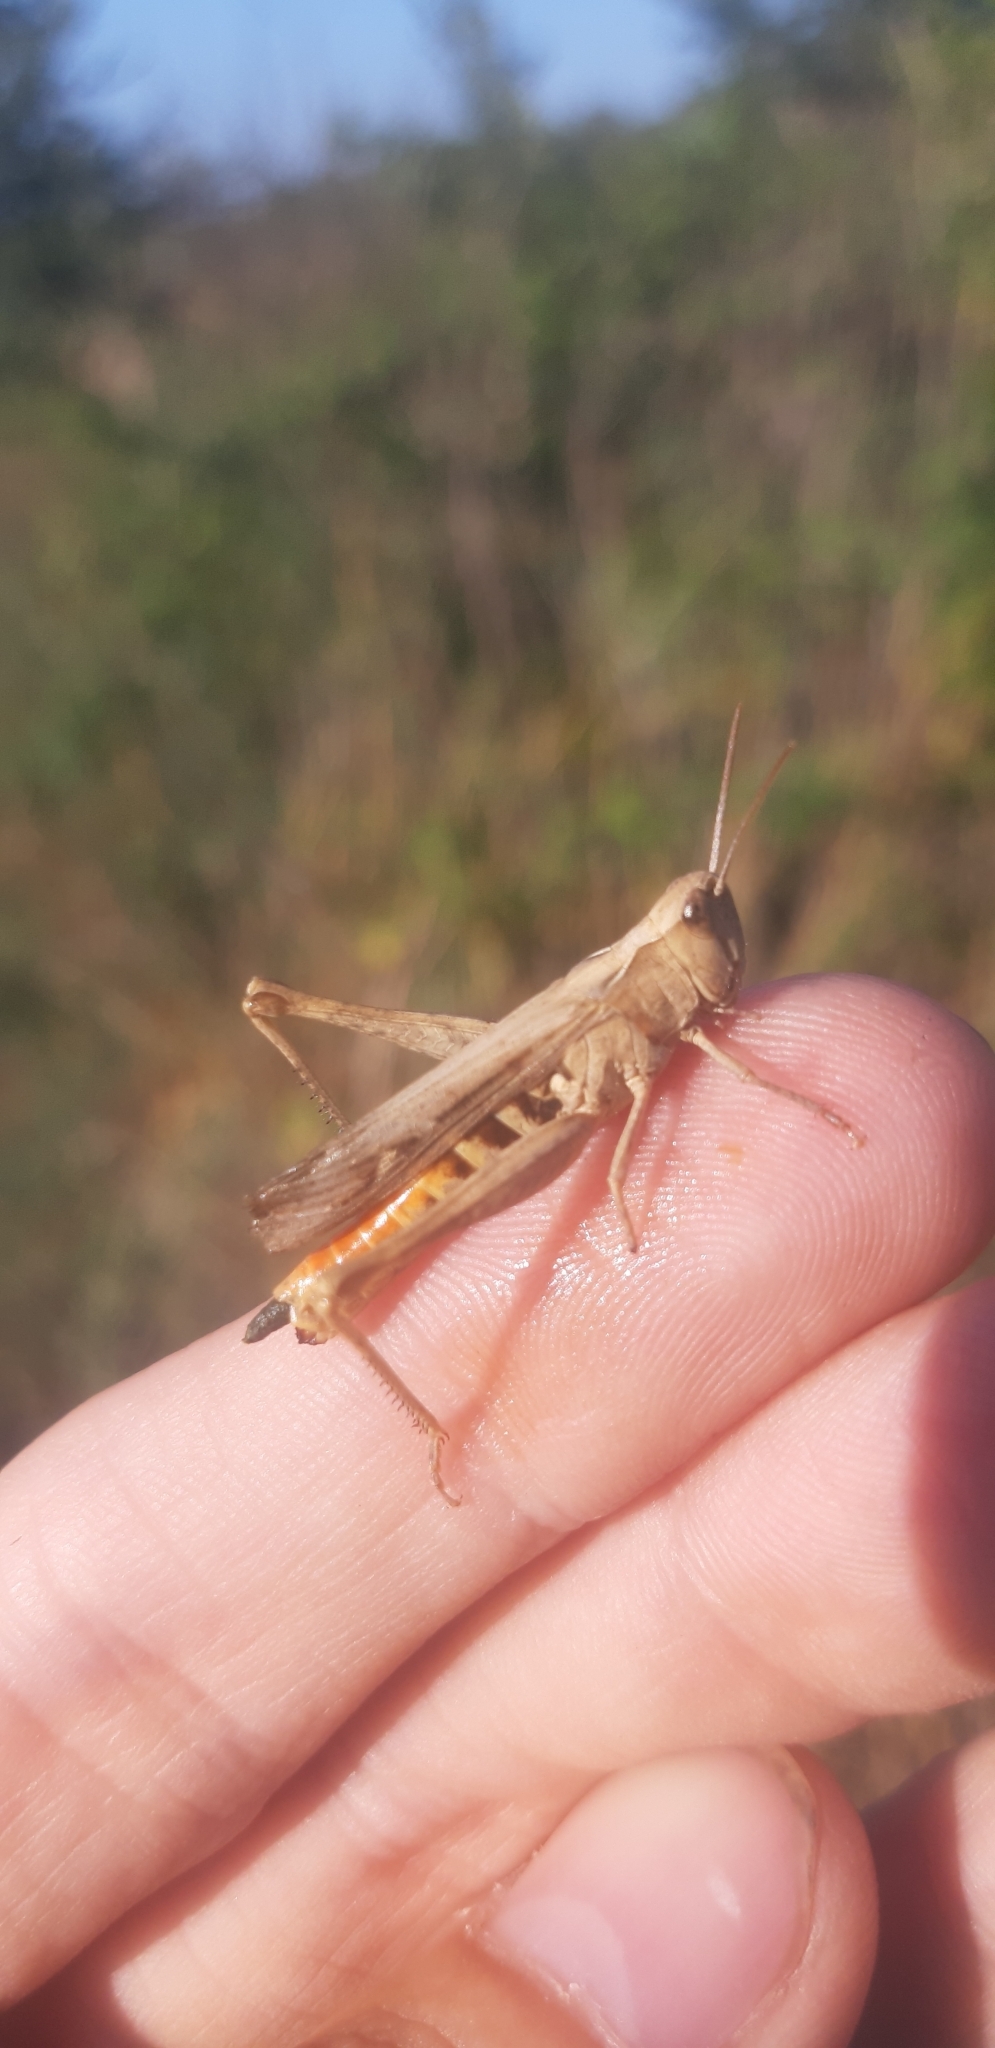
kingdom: Animalia
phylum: Arthropoda
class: Insecta
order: Orthoptera
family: Acrididae
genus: Chorthippus
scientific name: Chorthippus brunneus
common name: Field grasshopper
